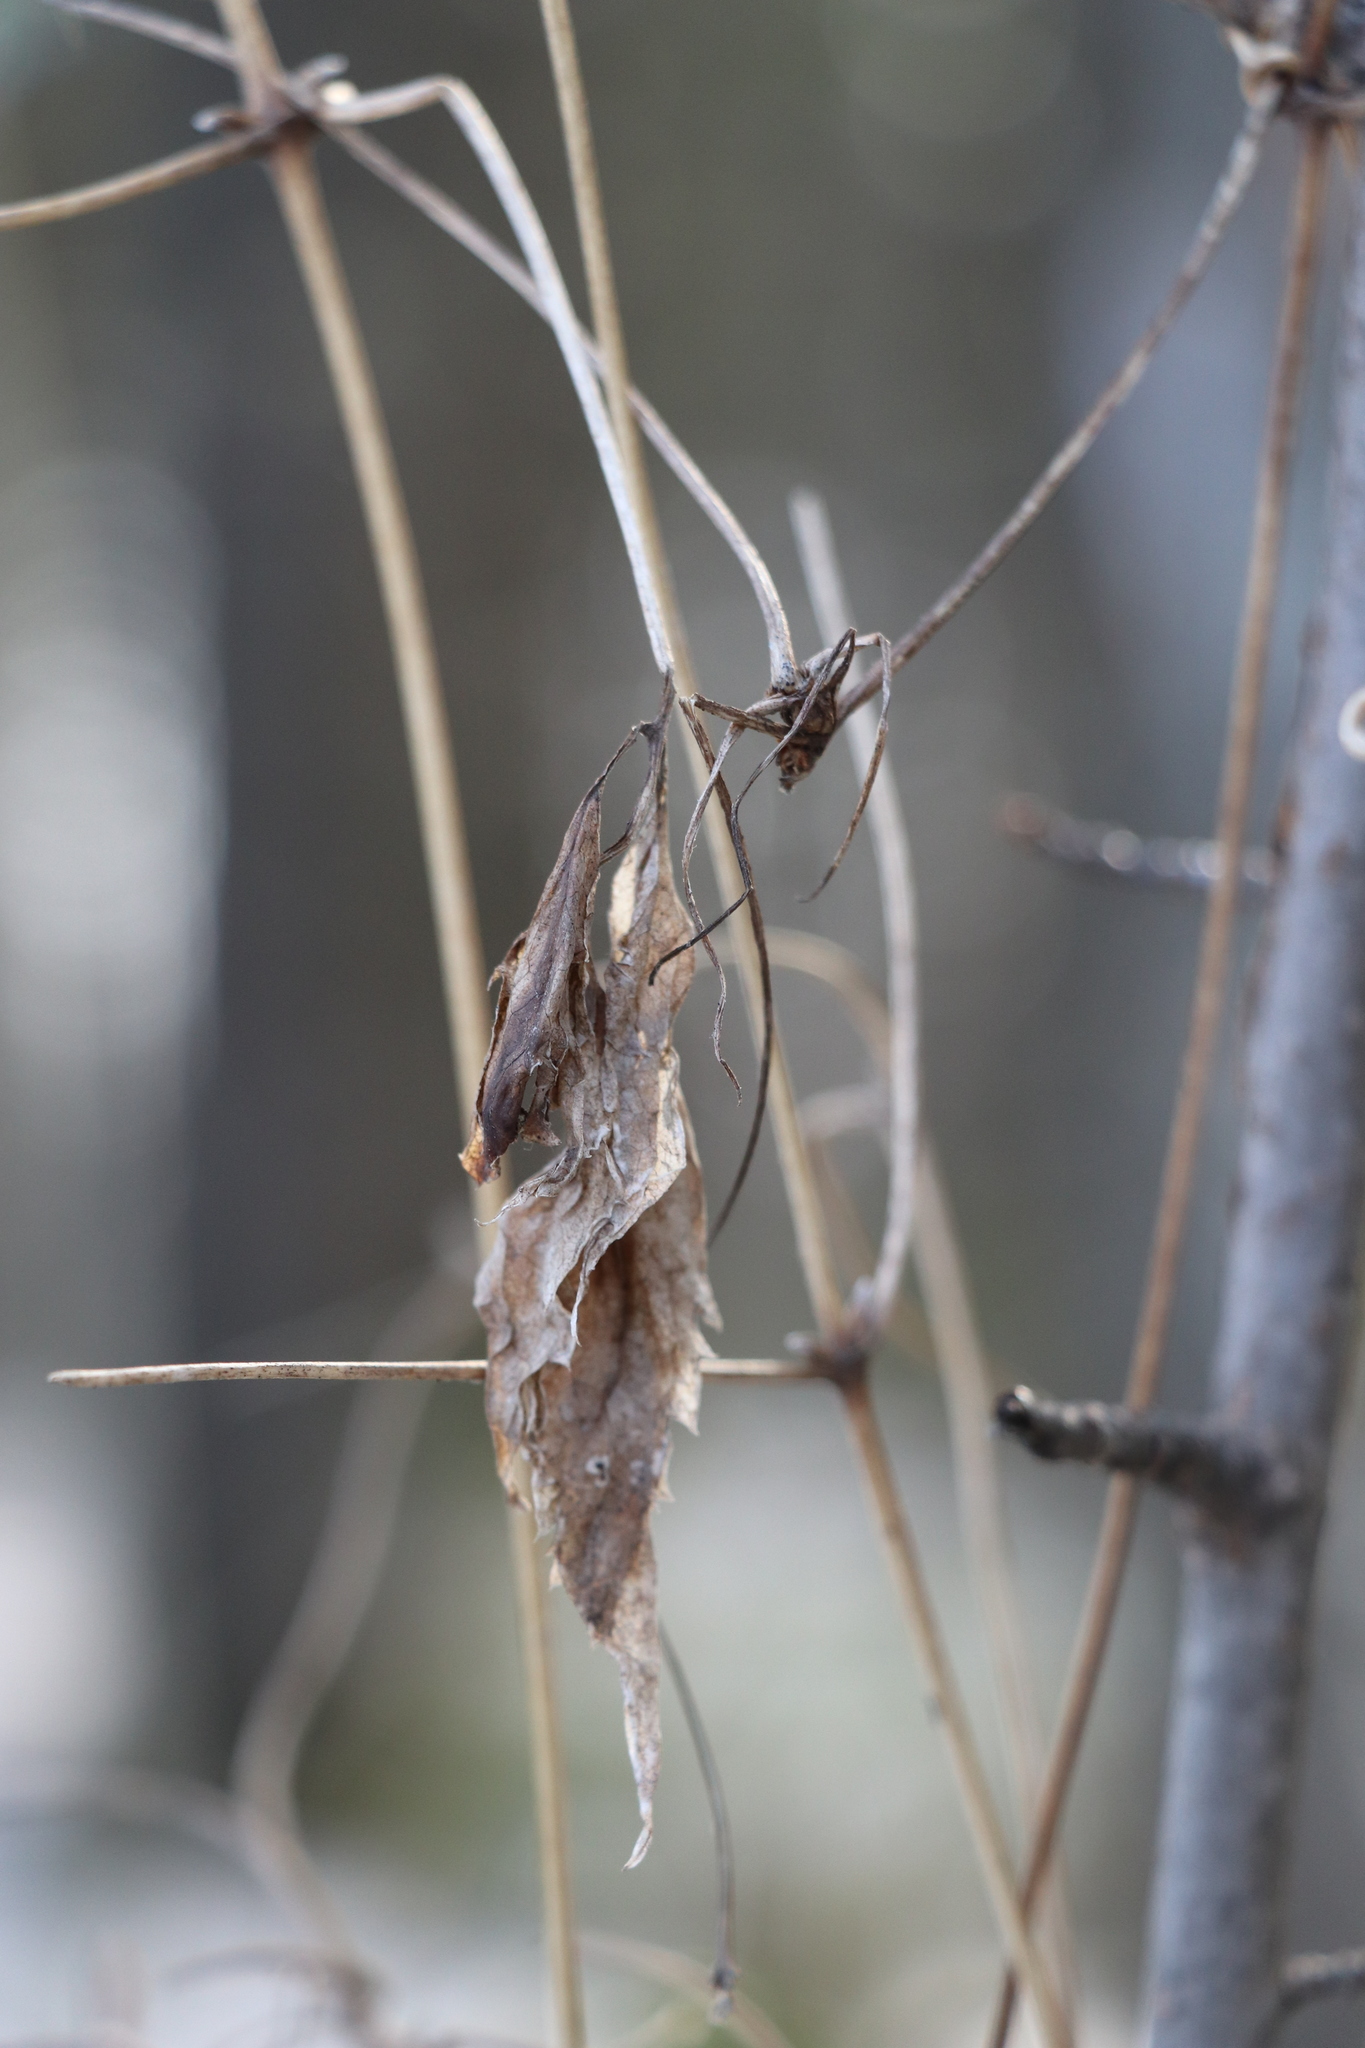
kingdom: Plantae
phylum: Tracheophyta
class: Magnoliopsida
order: Ranunculales
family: Ranunculaceae
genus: Clematis
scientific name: Clematis sibirica
